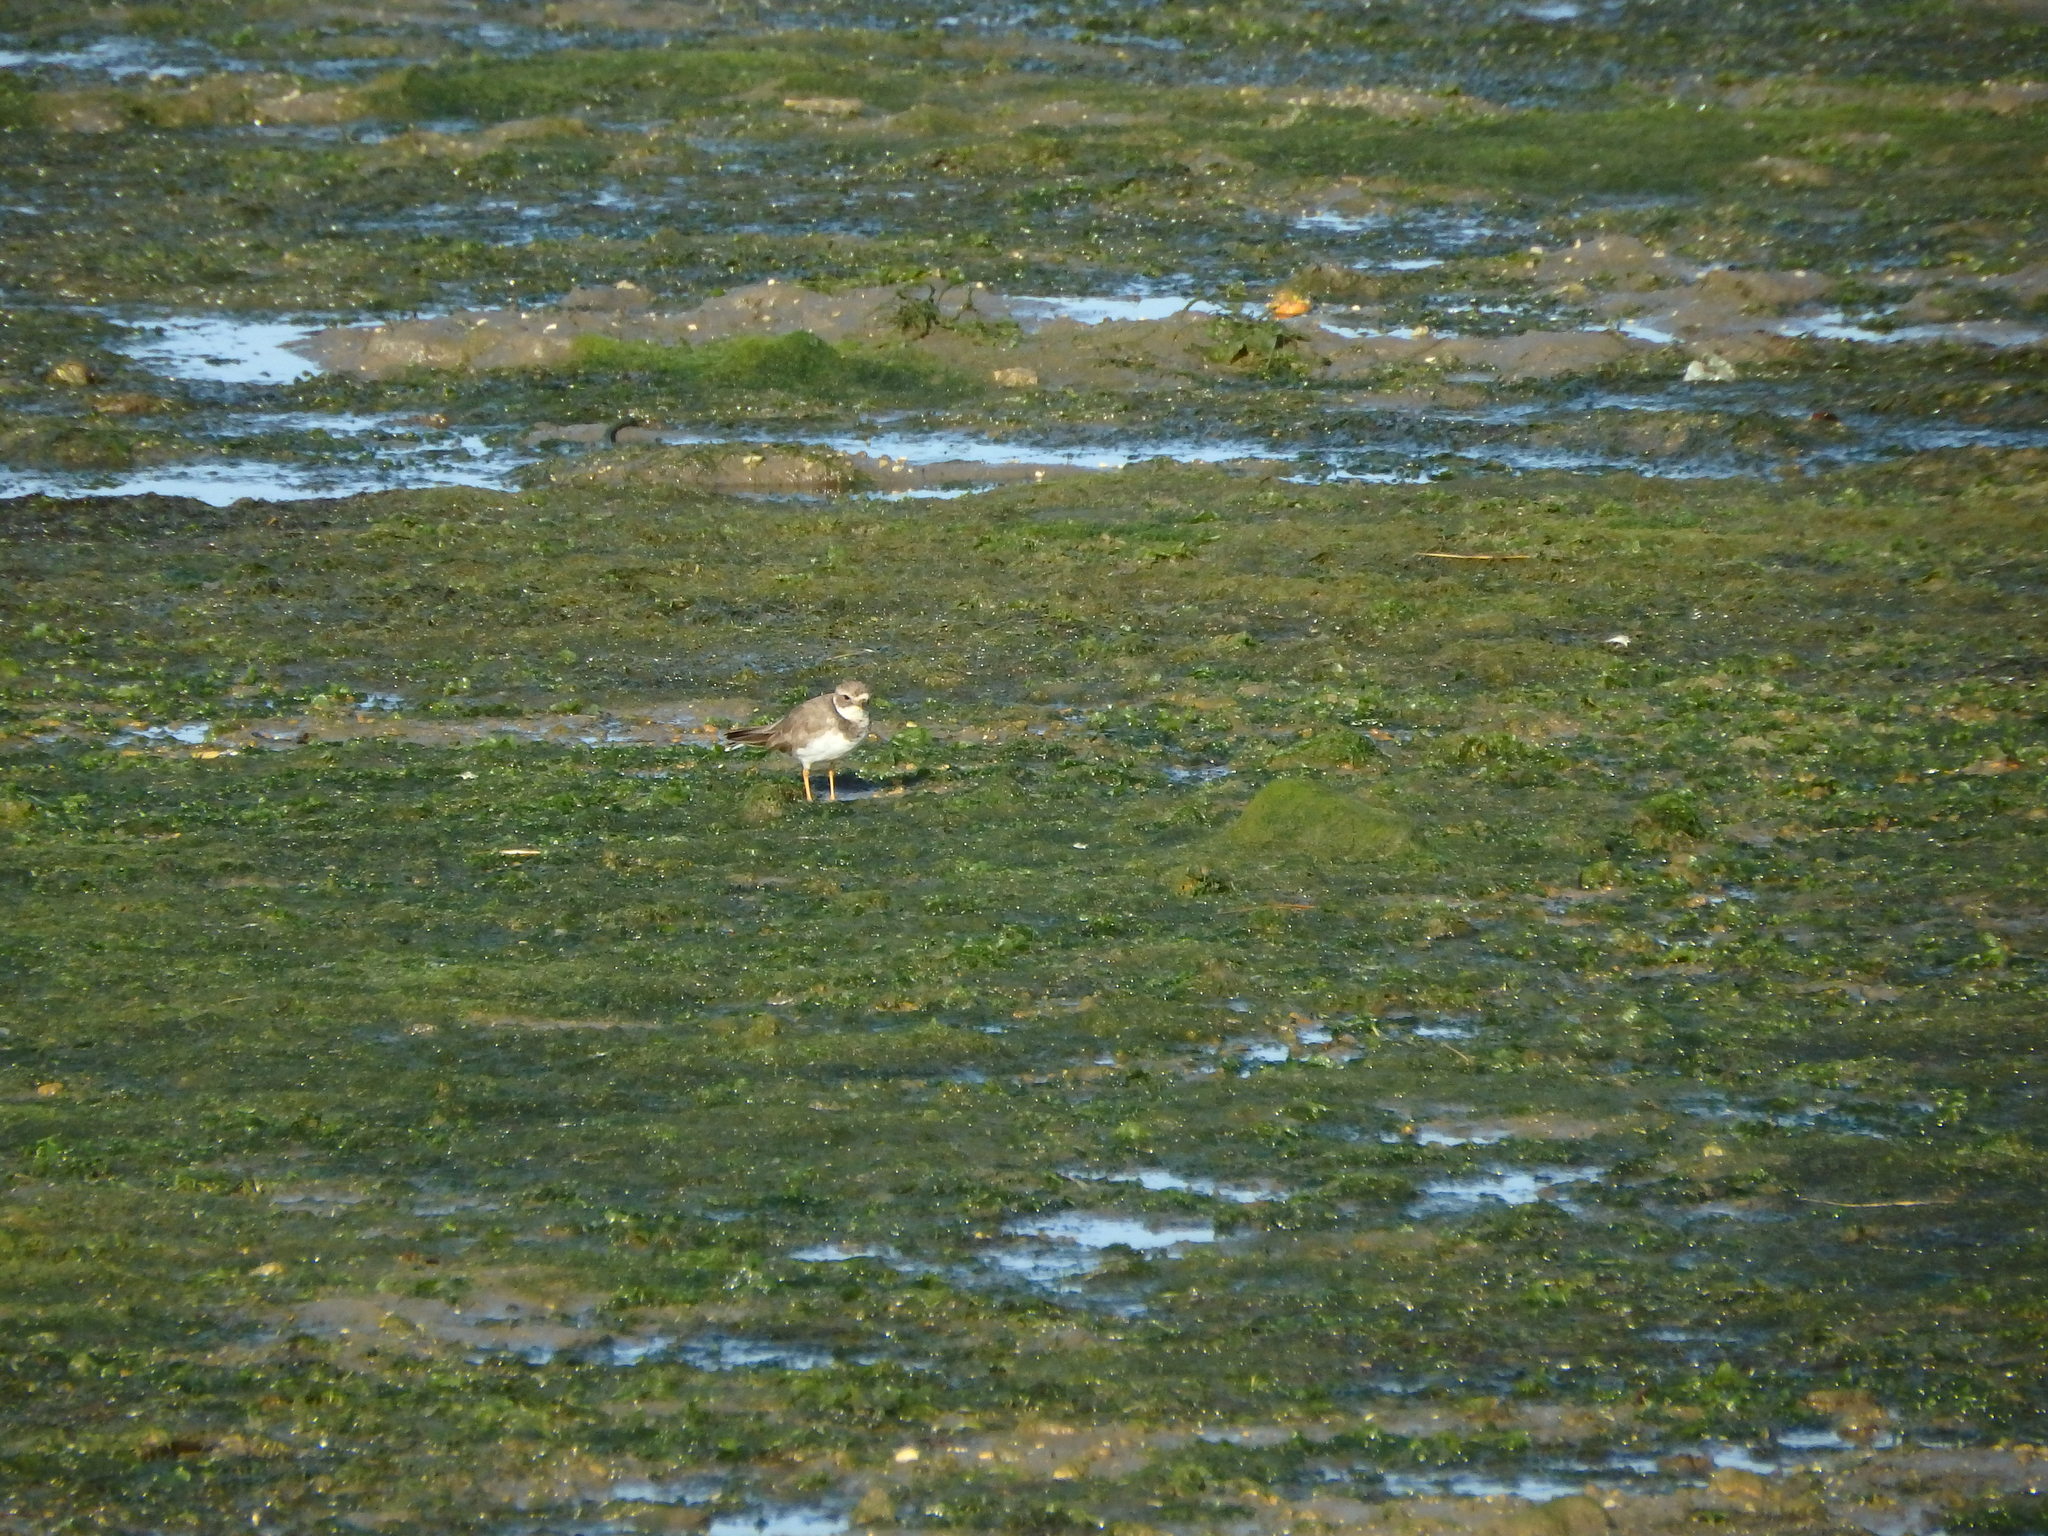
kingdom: Animalia
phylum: Chordata
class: Aves
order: Charadriiformes
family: Charadriidae
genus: Charadrius
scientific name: Charadrius hiaticula
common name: Common ringed plover
